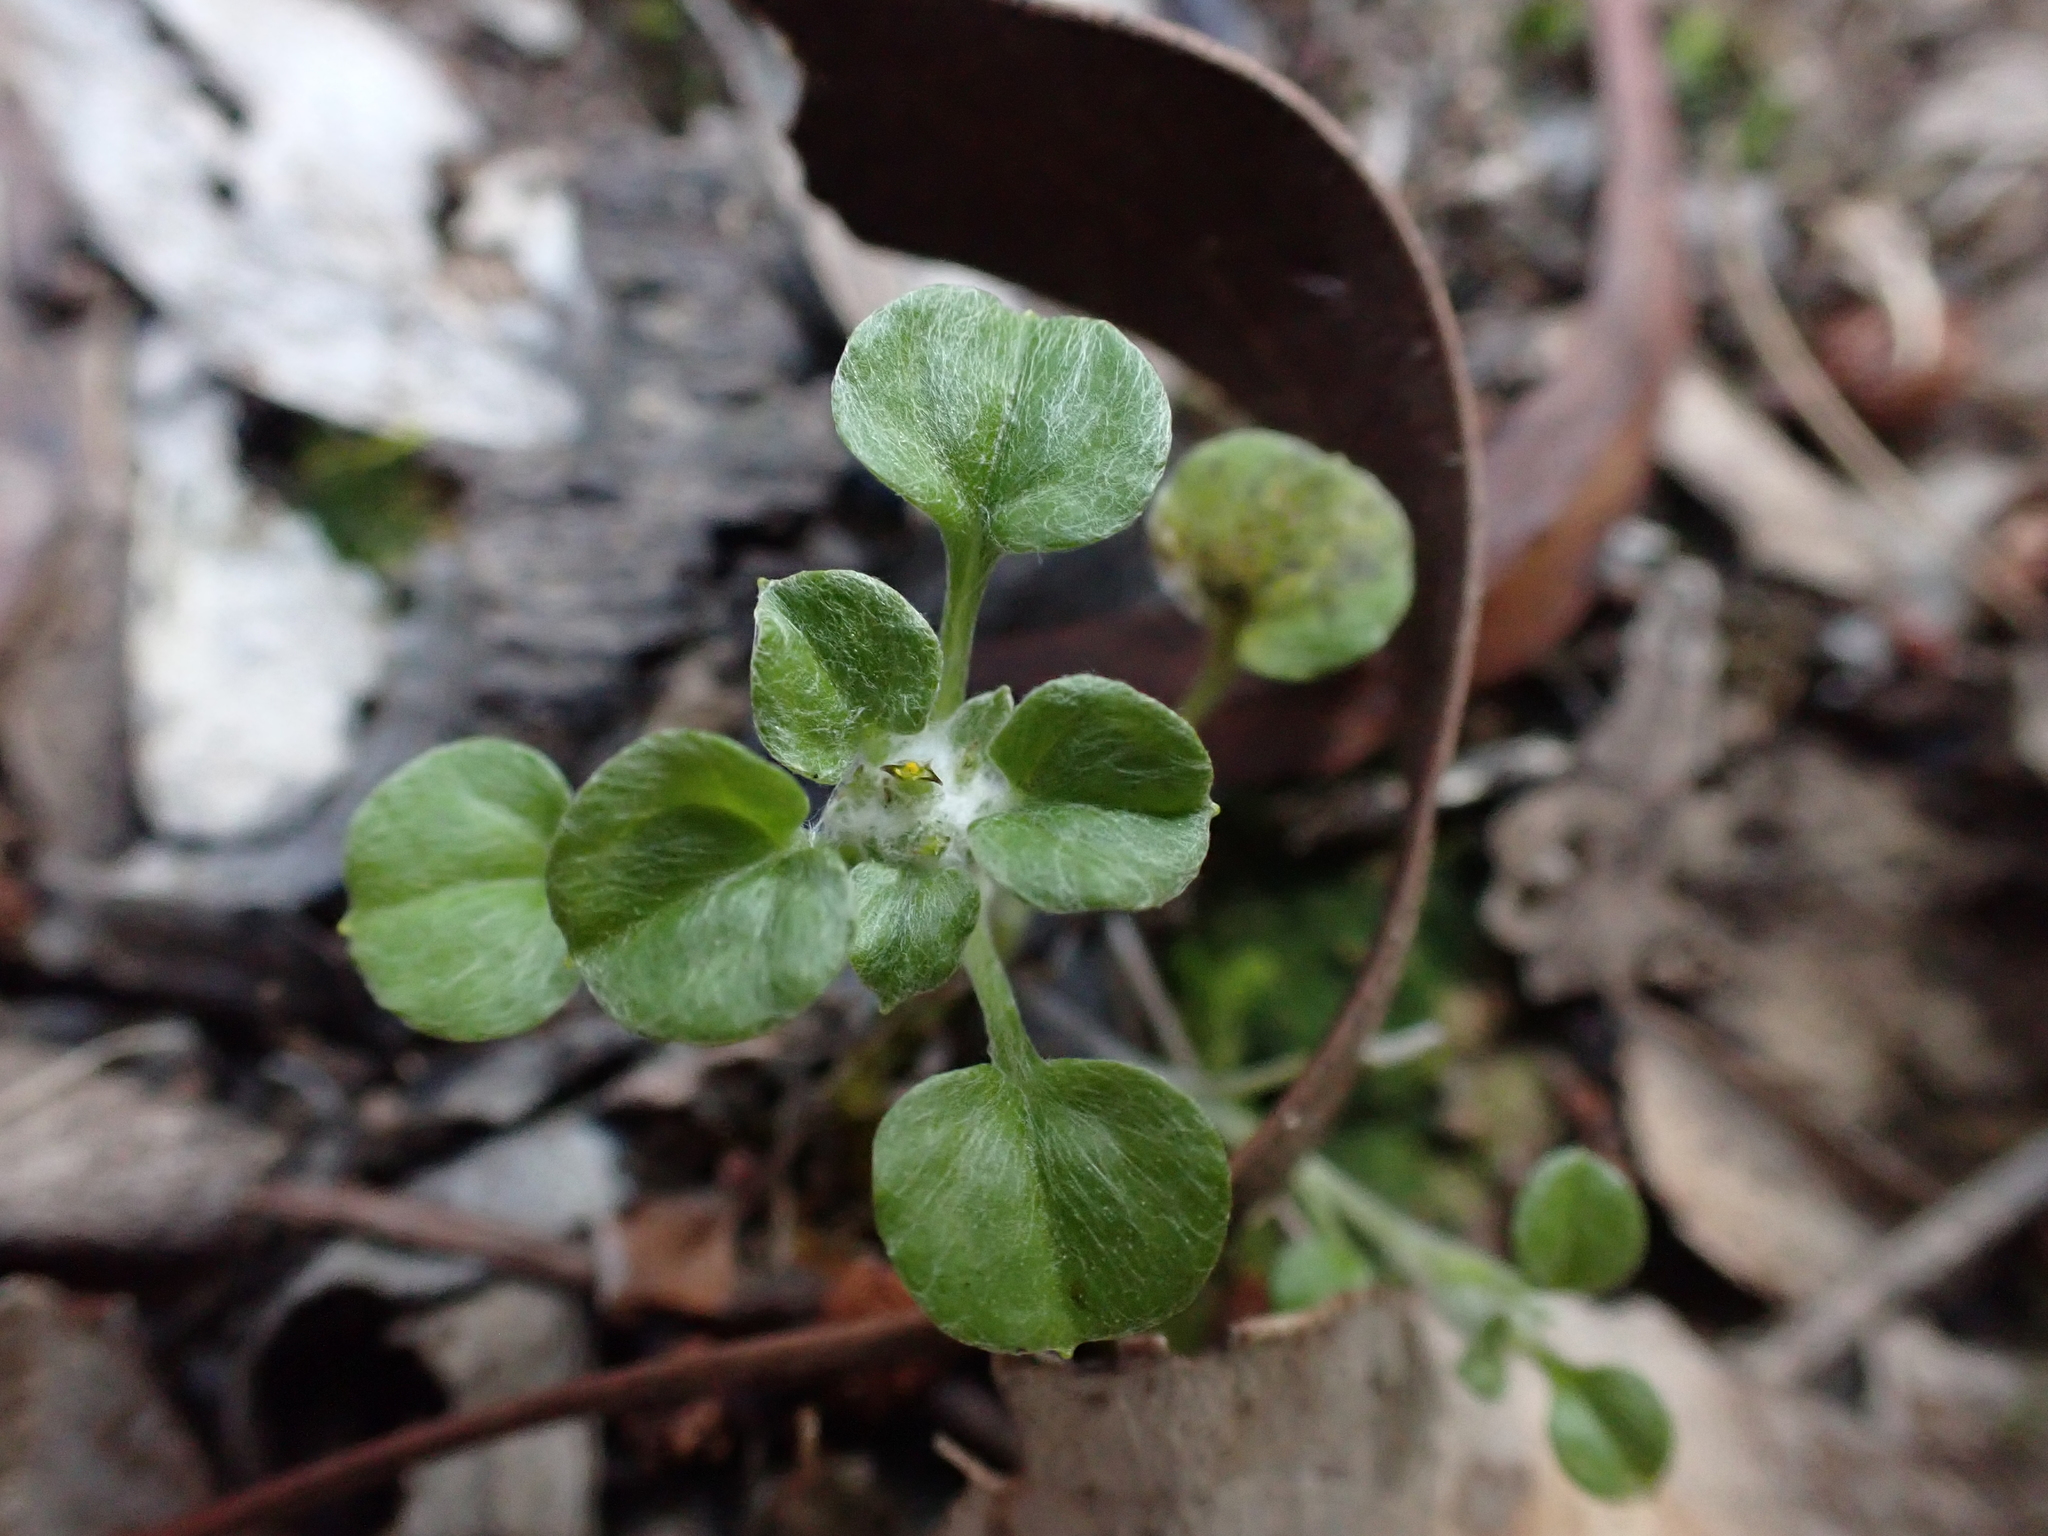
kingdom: Plantae
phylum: Tracheophyta
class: Magnoliopsida
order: Asterales
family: Asteraceae
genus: Stuartina
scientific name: Stuartina muelleri
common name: Spoon-leaved cudweed
